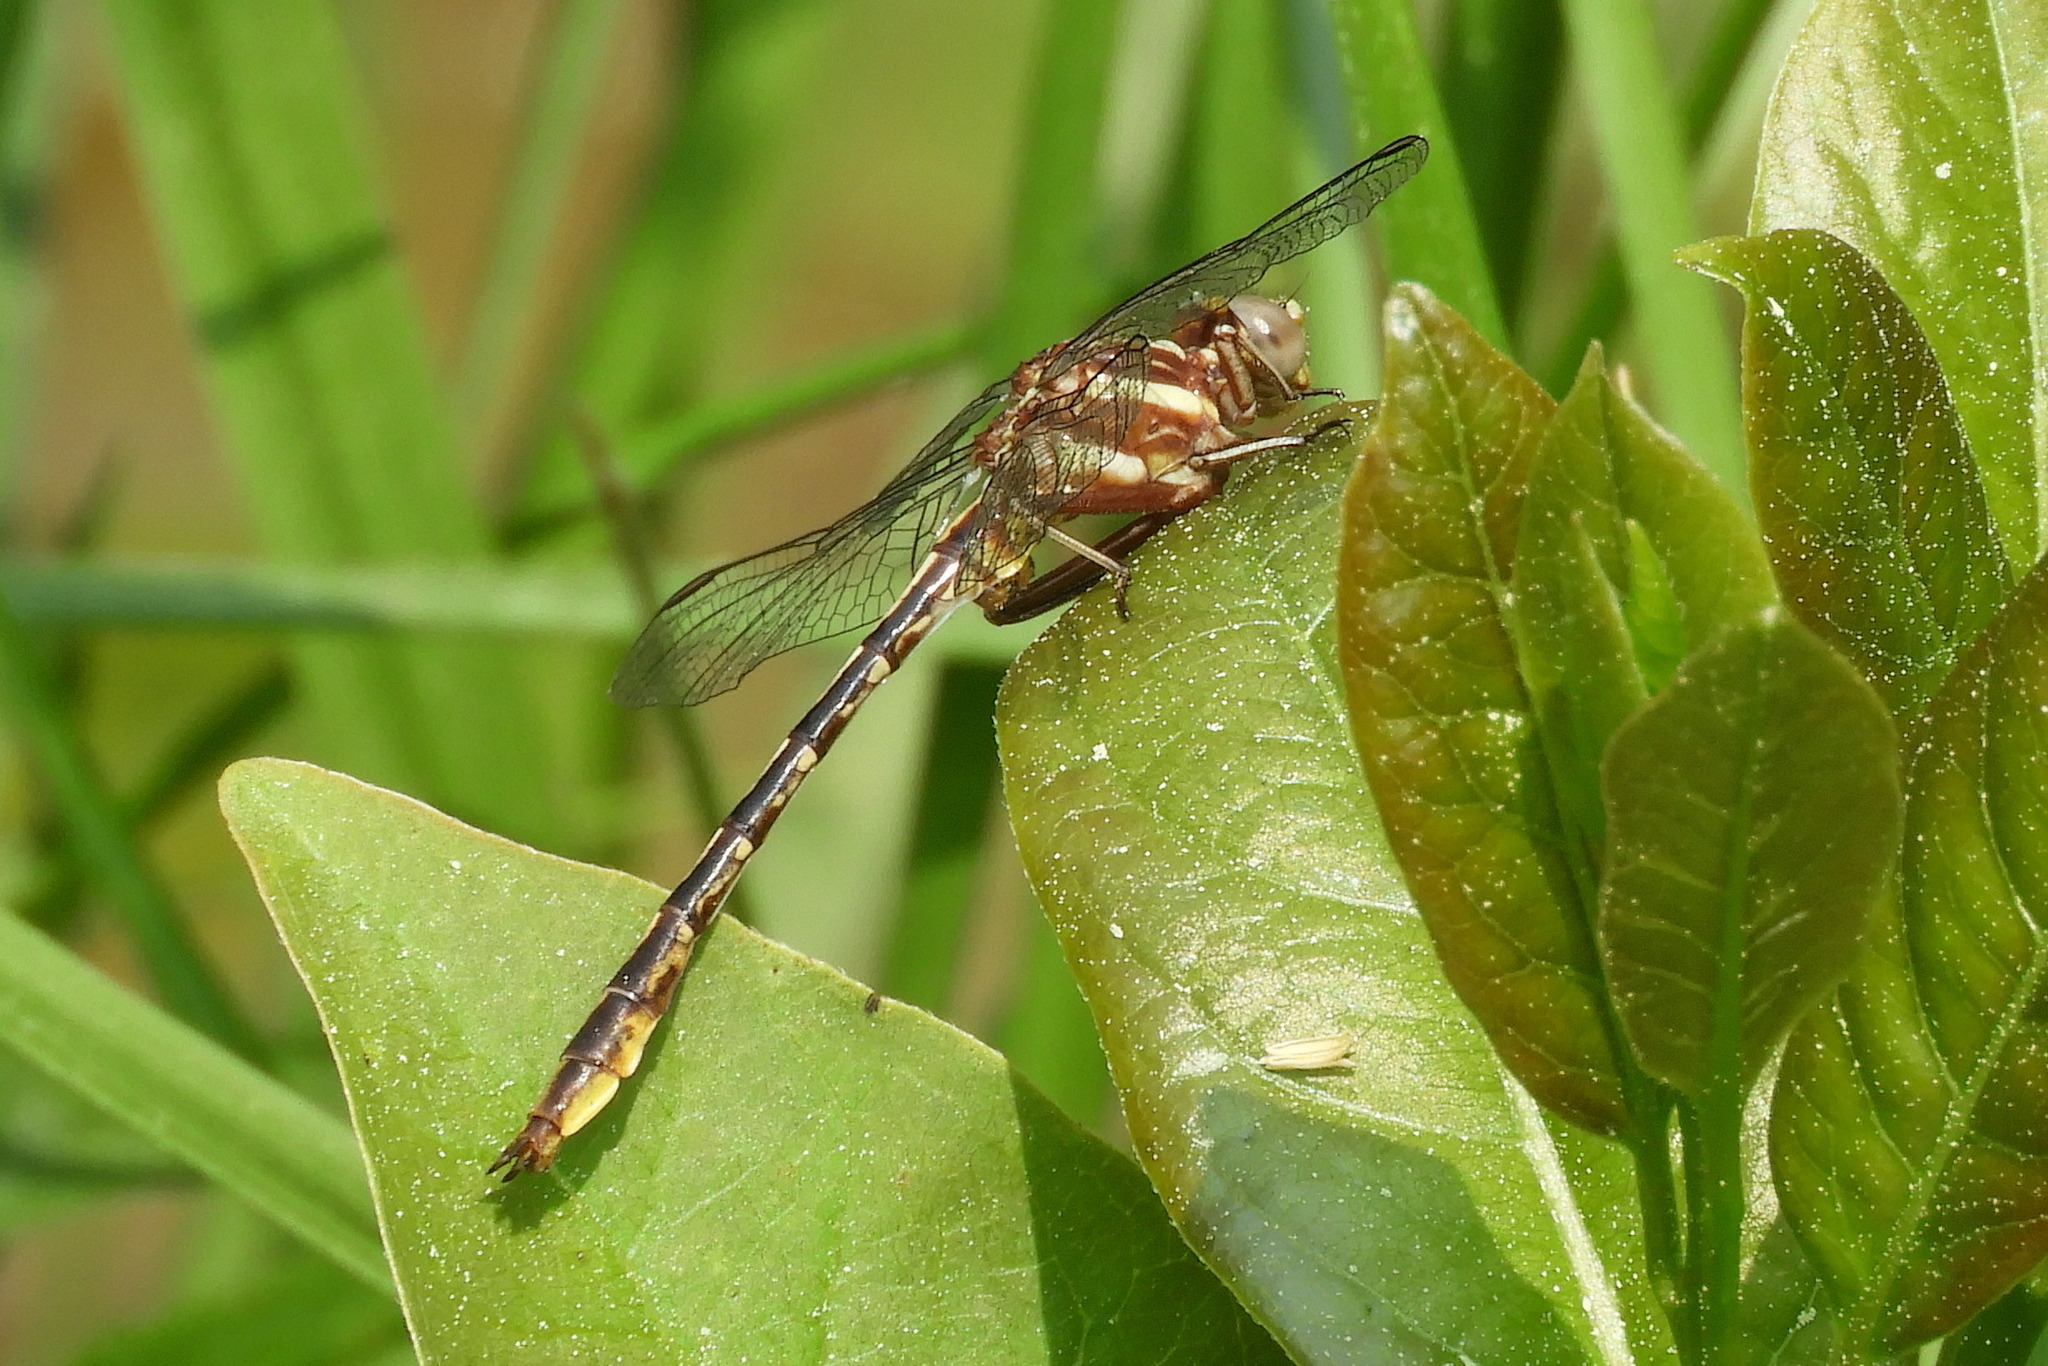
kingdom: Animalia
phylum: Arthropoda
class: Insecta
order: Odonata
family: Gomphidae
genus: Phanogomphus
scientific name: Phanogomphus exilis
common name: Lancet clubtail
